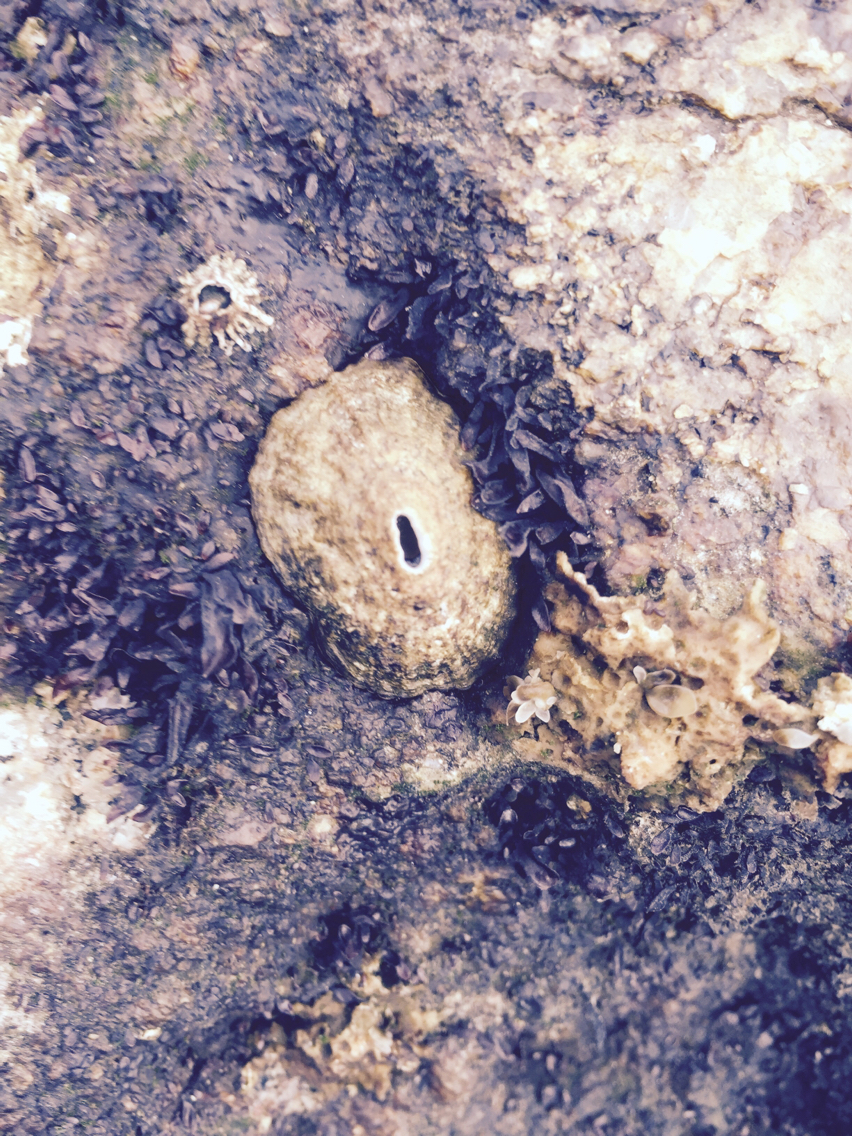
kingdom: Animalia
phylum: Mollusca
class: Gastropoda
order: Lepetellida
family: Fissurellidae
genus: Fissurella
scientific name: Fissurella volcano
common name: Volcano keyhole limpet
